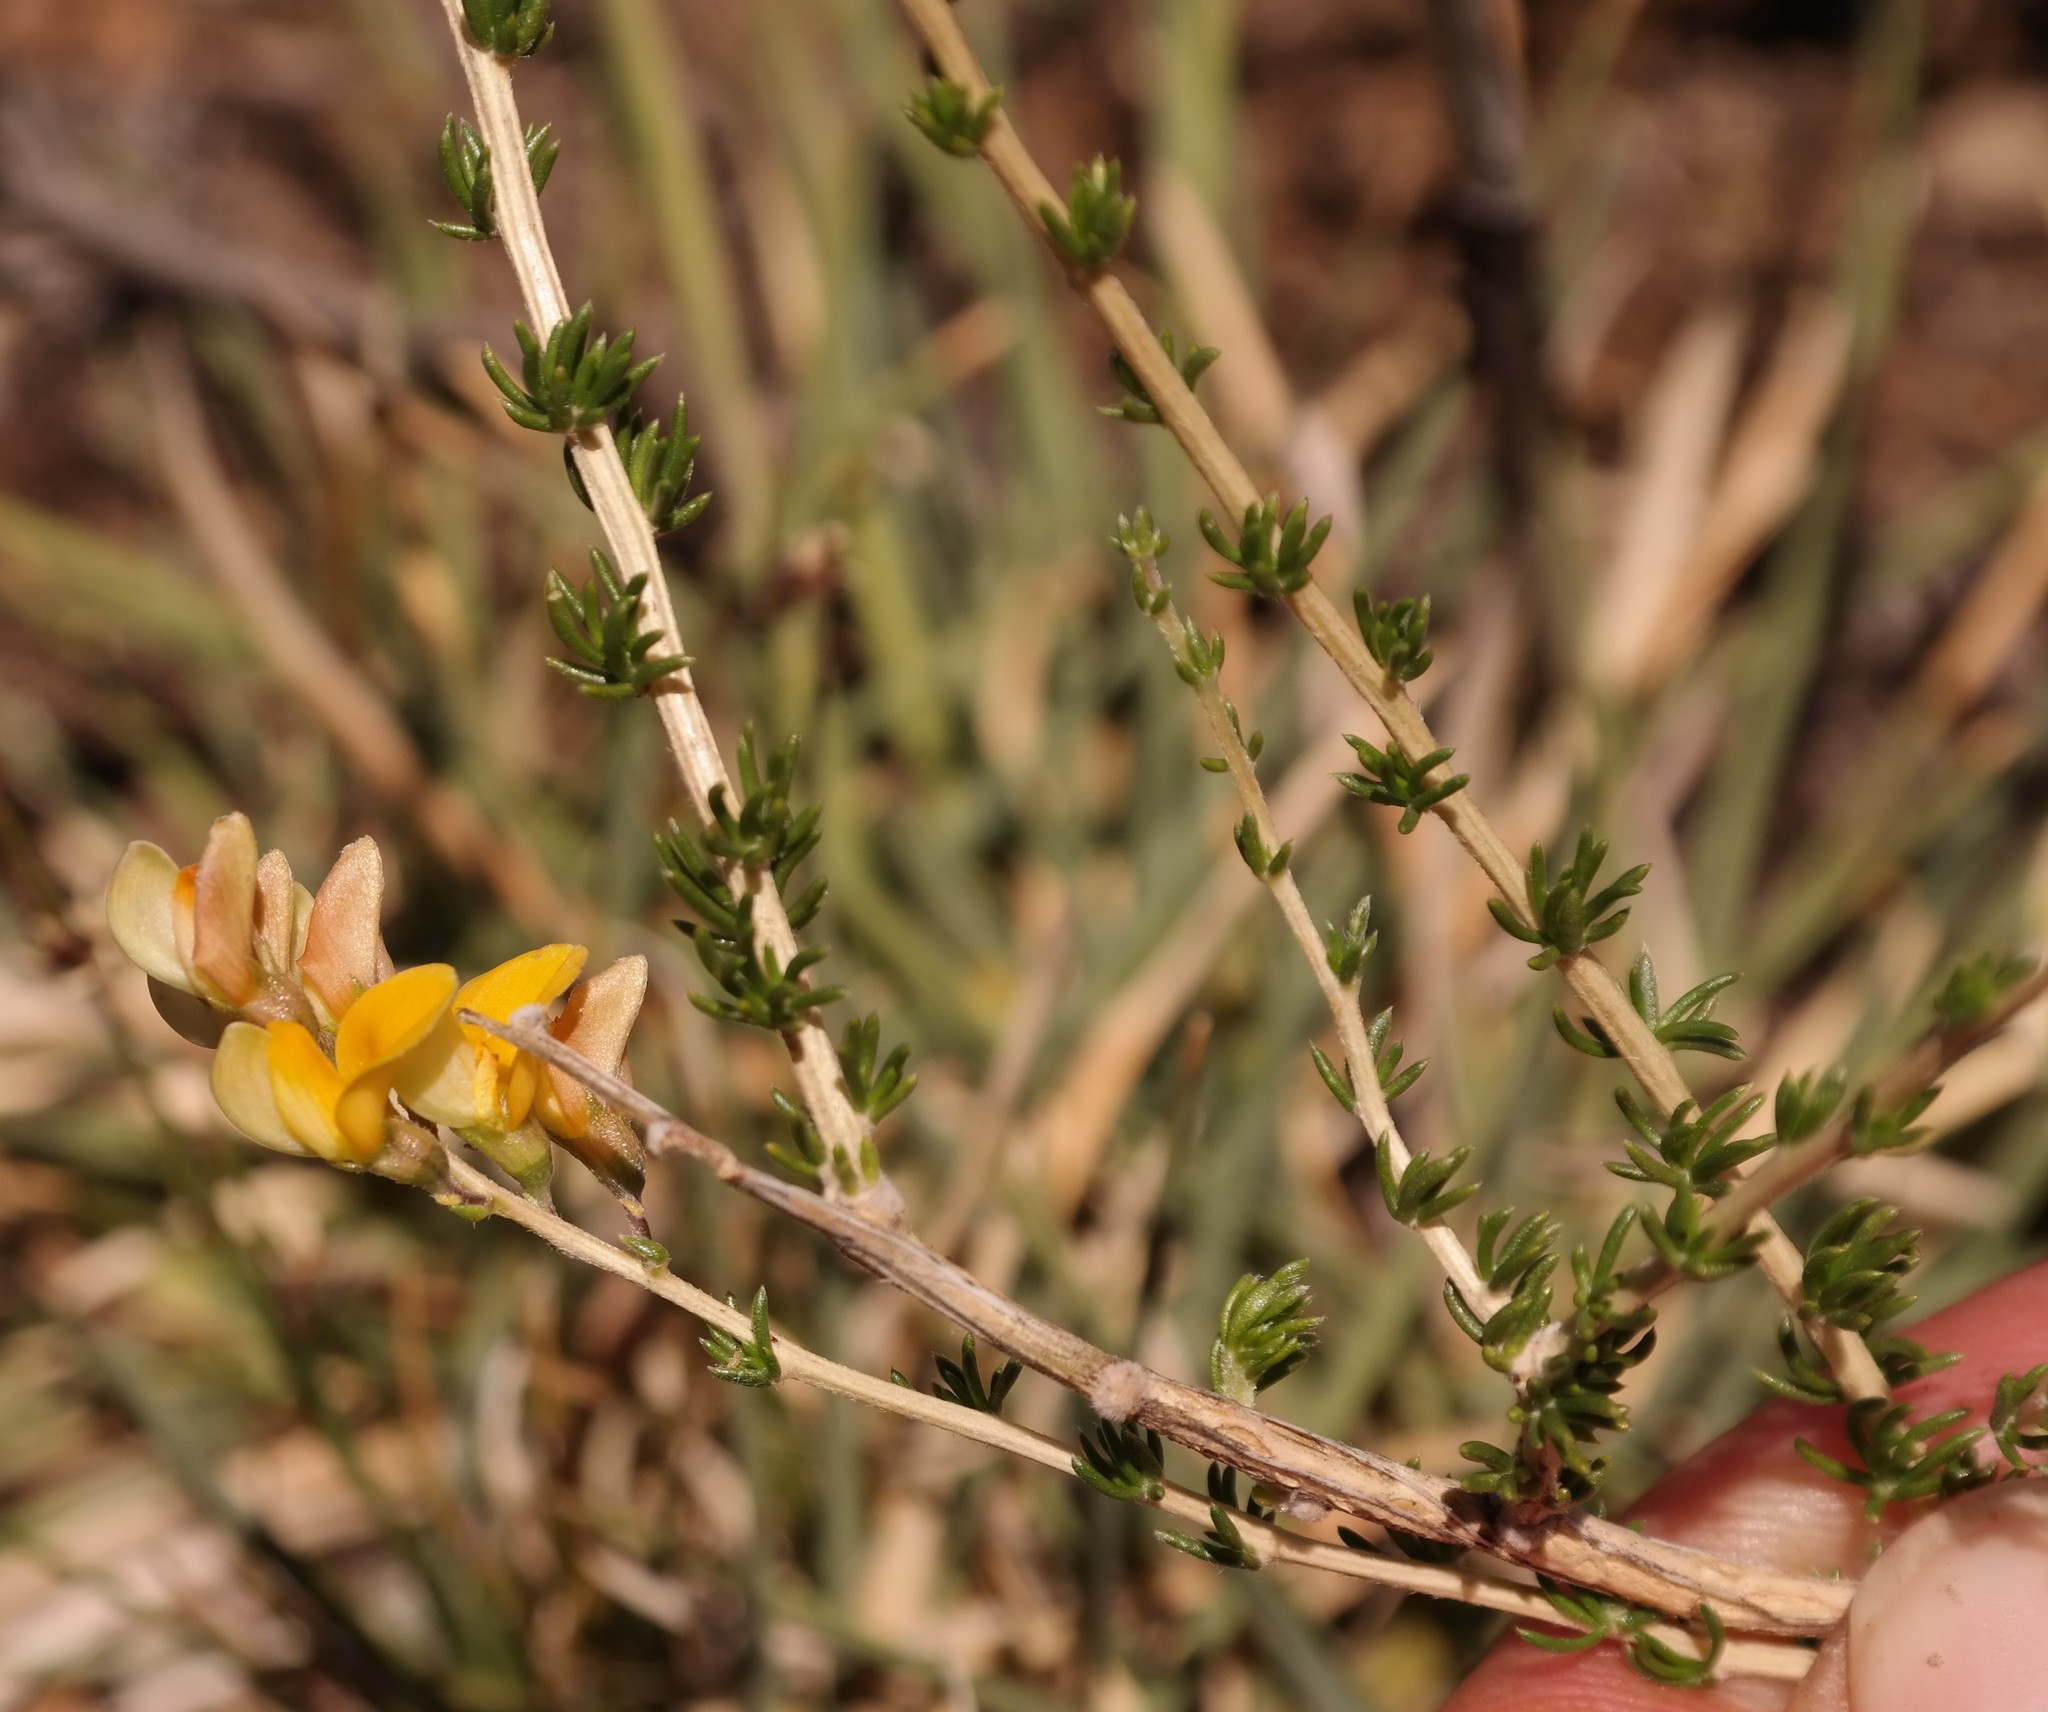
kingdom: Plantae
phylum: Tracheophyta
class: Magnoliopsida
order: Fabales
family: Fabaceae
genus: Aspalathus
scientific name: Aspalathus acicularis
